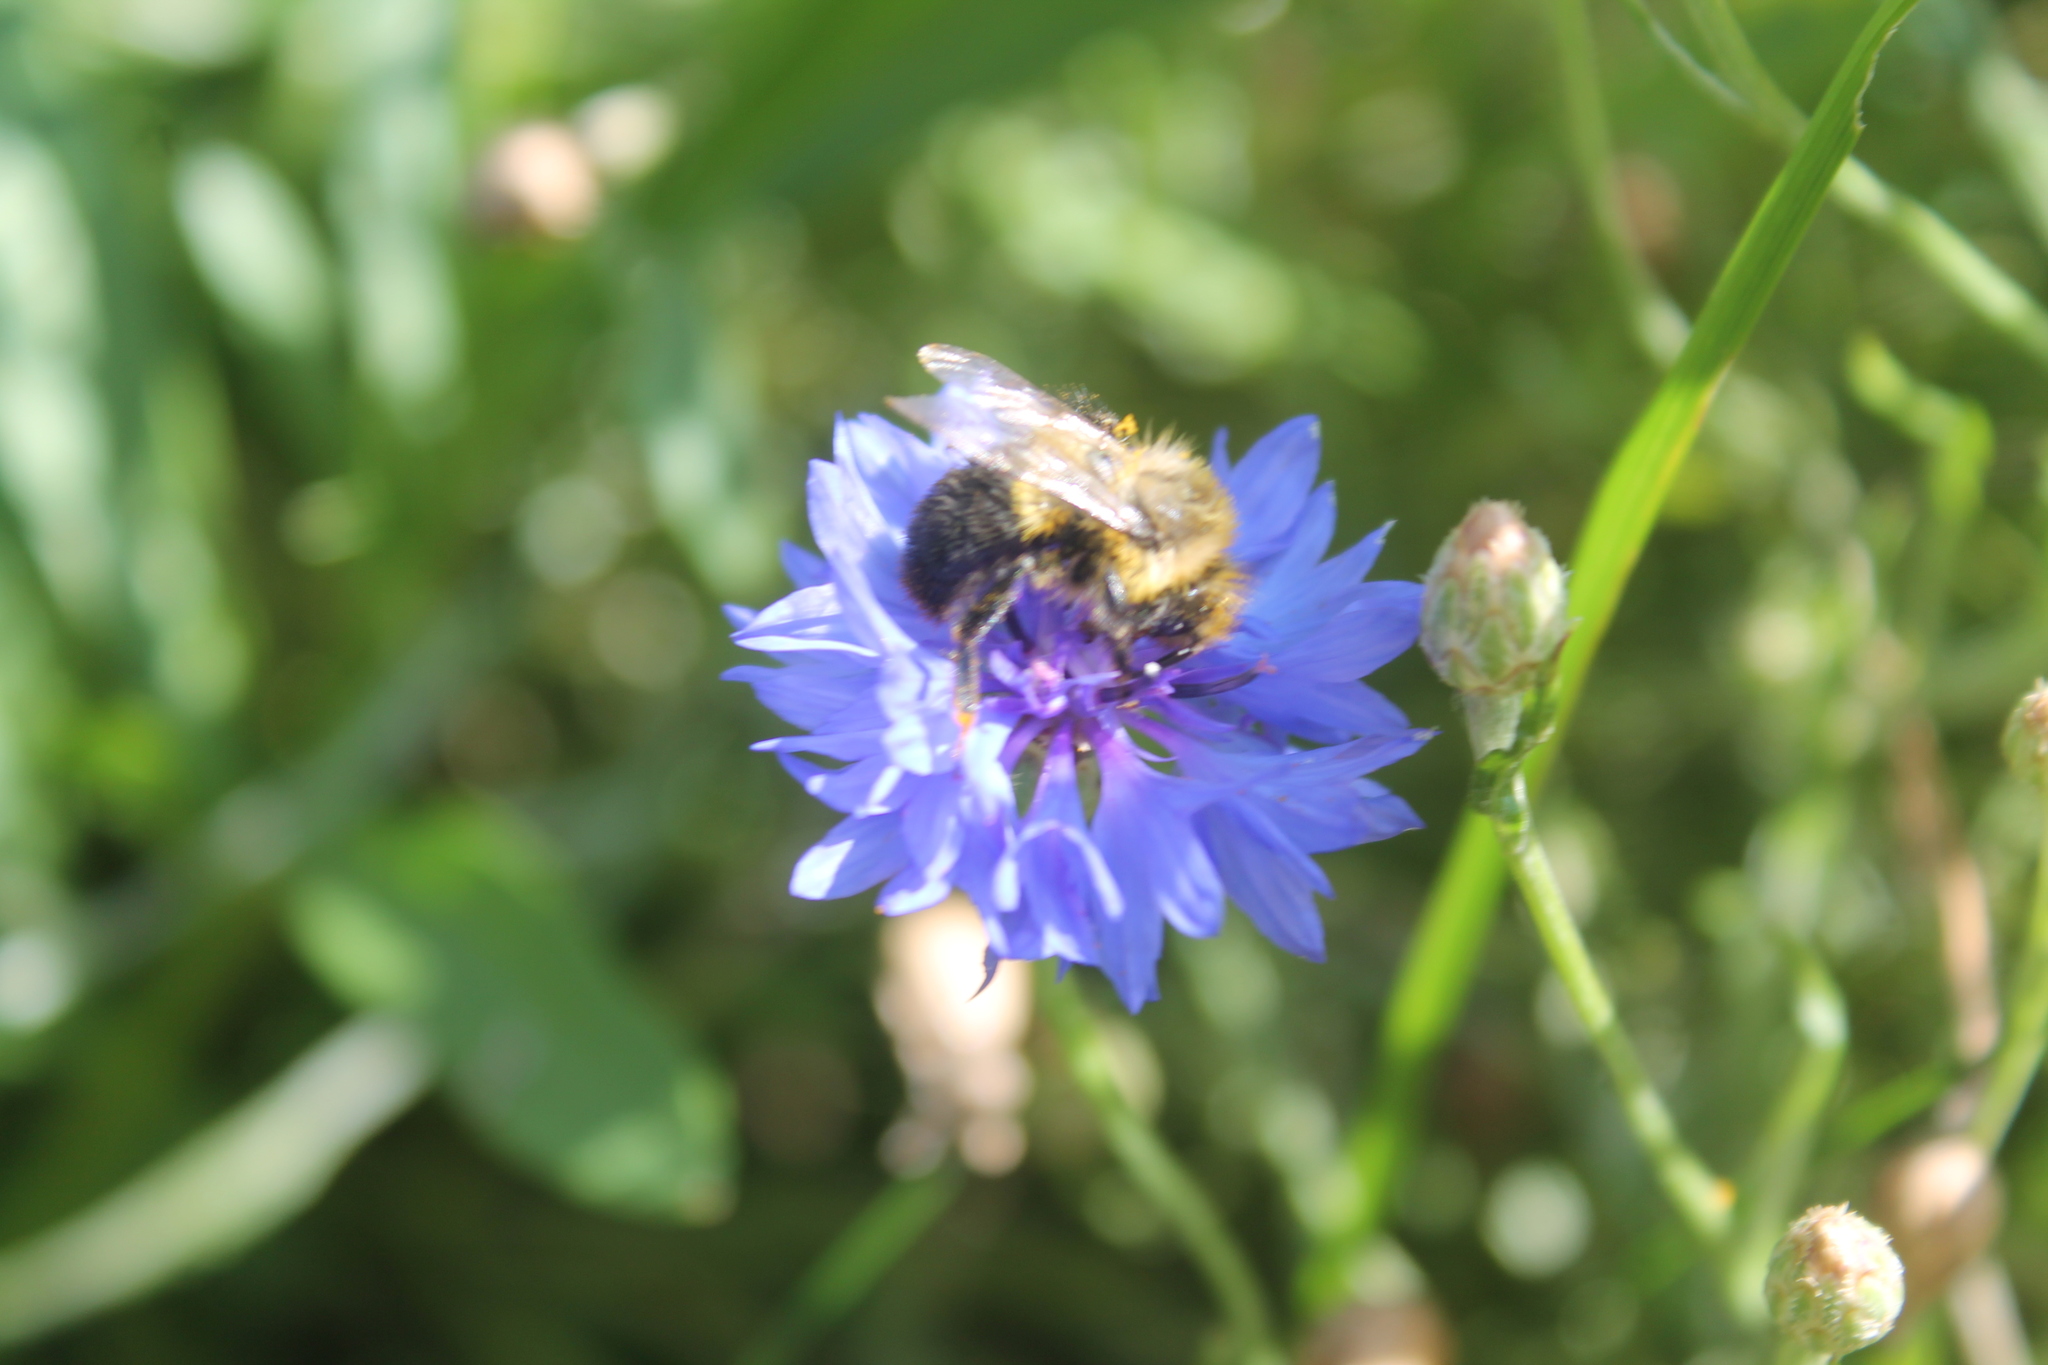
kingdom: Animalia
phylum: Arthropoda
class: Insecta
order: Hymenoptera
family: Apidae
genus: Bombus
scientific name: Bombus impatiens
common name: Common eastern bumble bee
